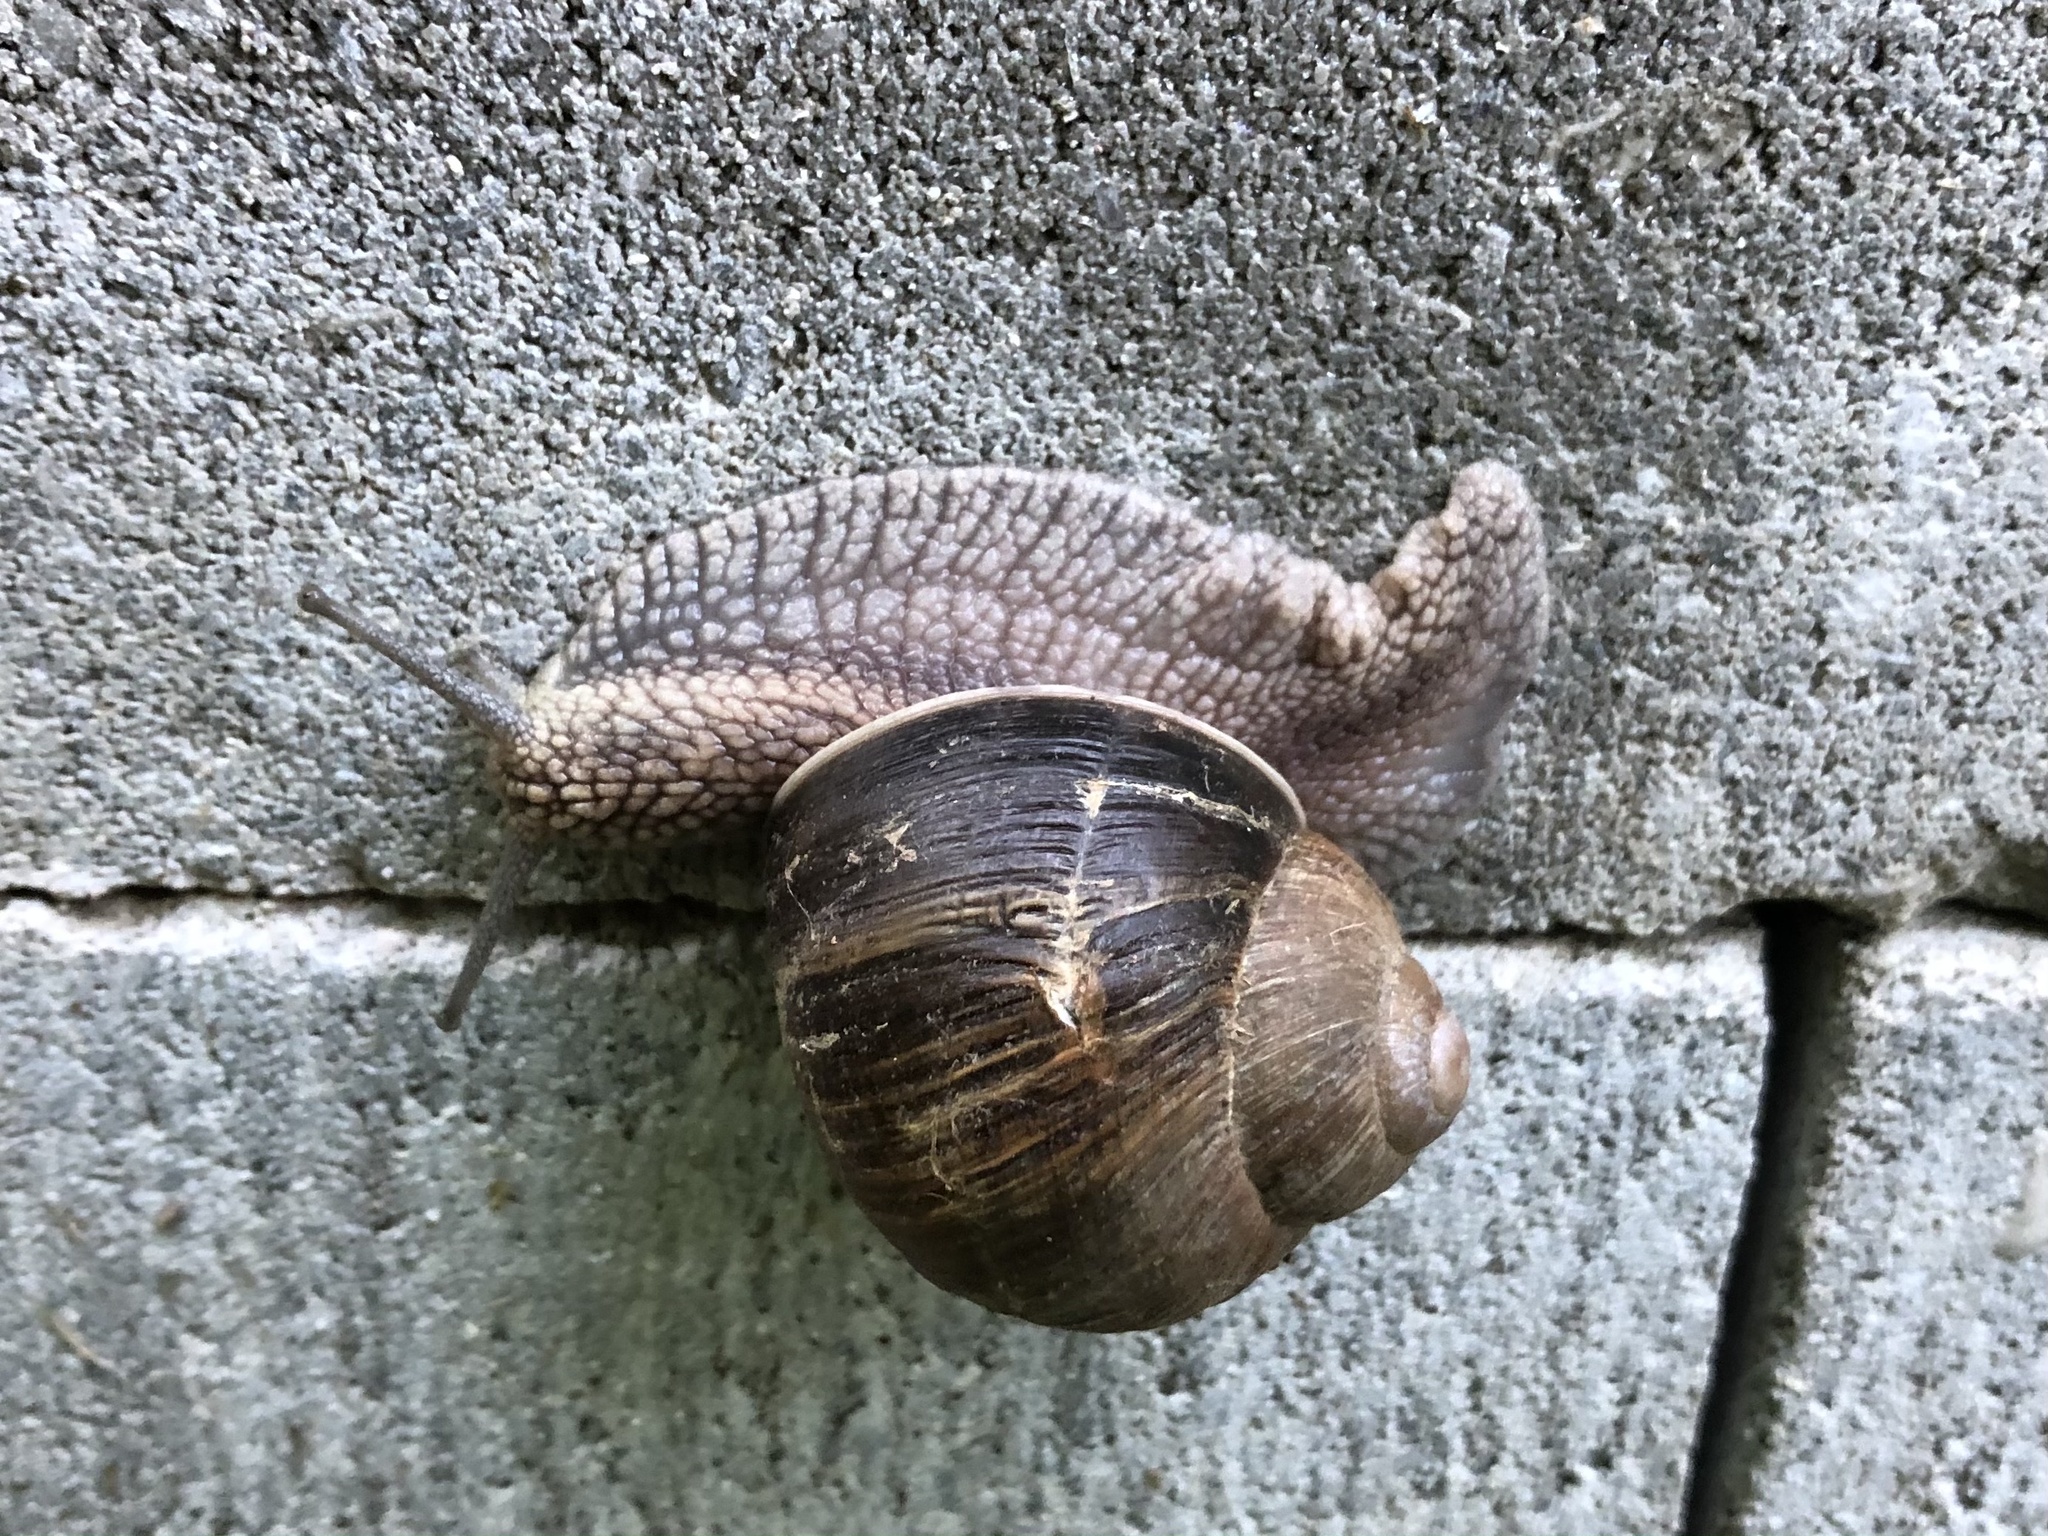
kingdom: Animalia
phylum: Mollusca
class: Gastropoda
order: Stylommatophora
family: Helicidae
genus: Helix
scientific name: Helix pomatia
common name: Roman snail
